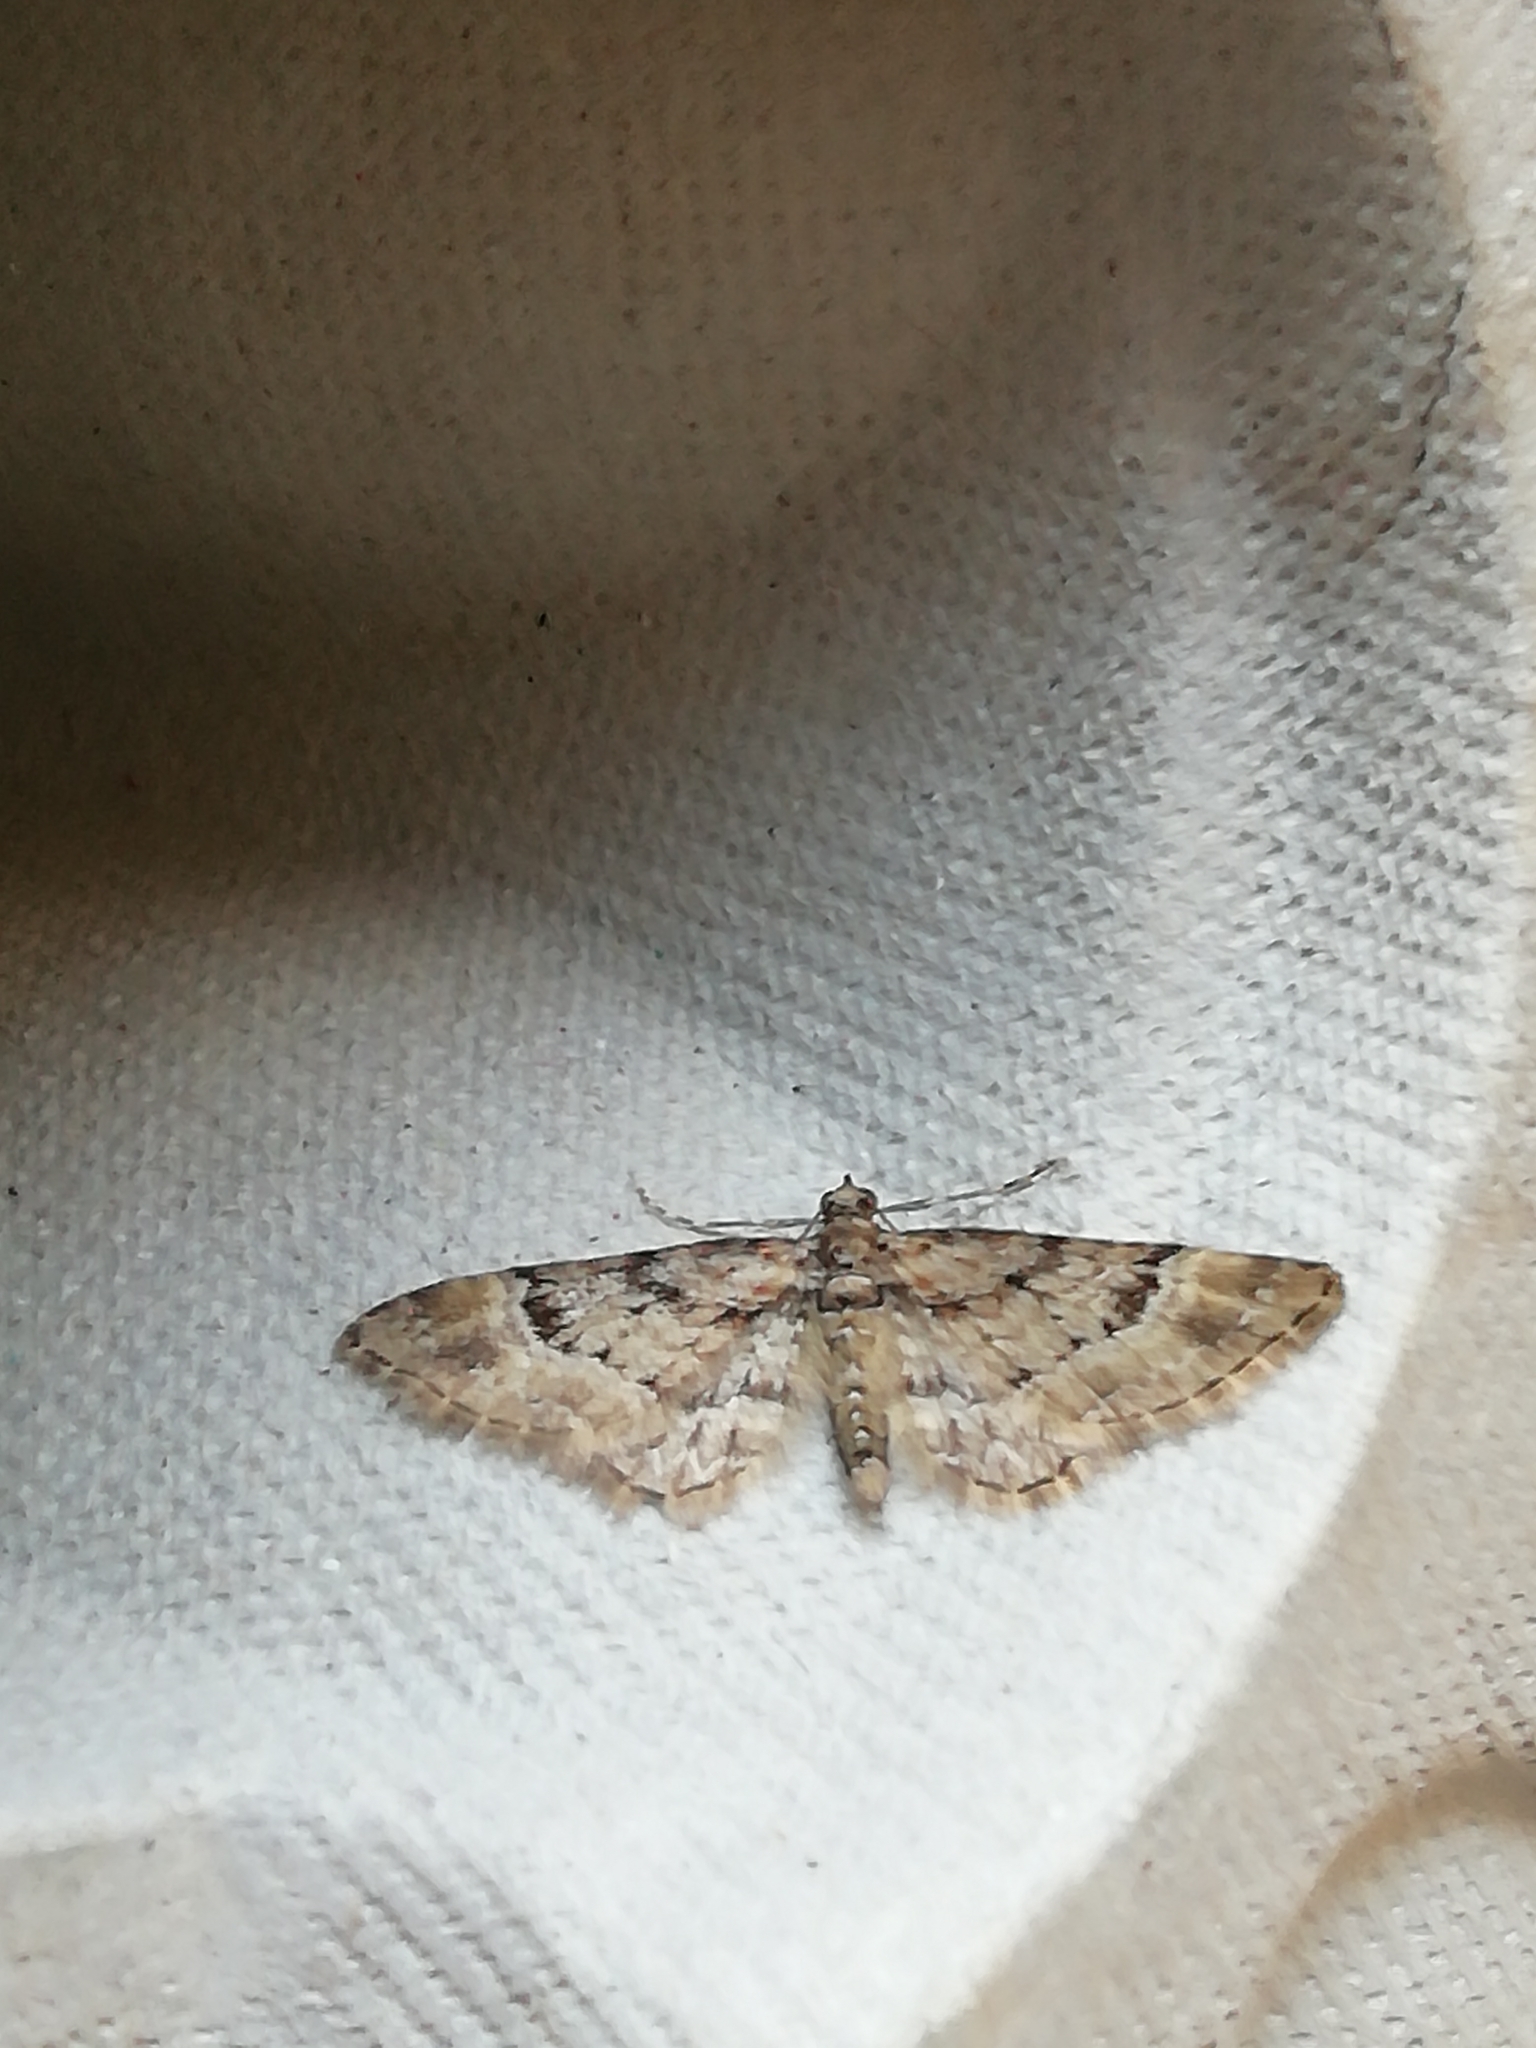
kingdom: Animalia
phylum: Arthropoda
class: Insecta
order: Lepidoptera
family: Geometridae
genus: Gymnoscelis
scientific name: Gymnoscelis rufifasciata
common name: Double-striped pug
